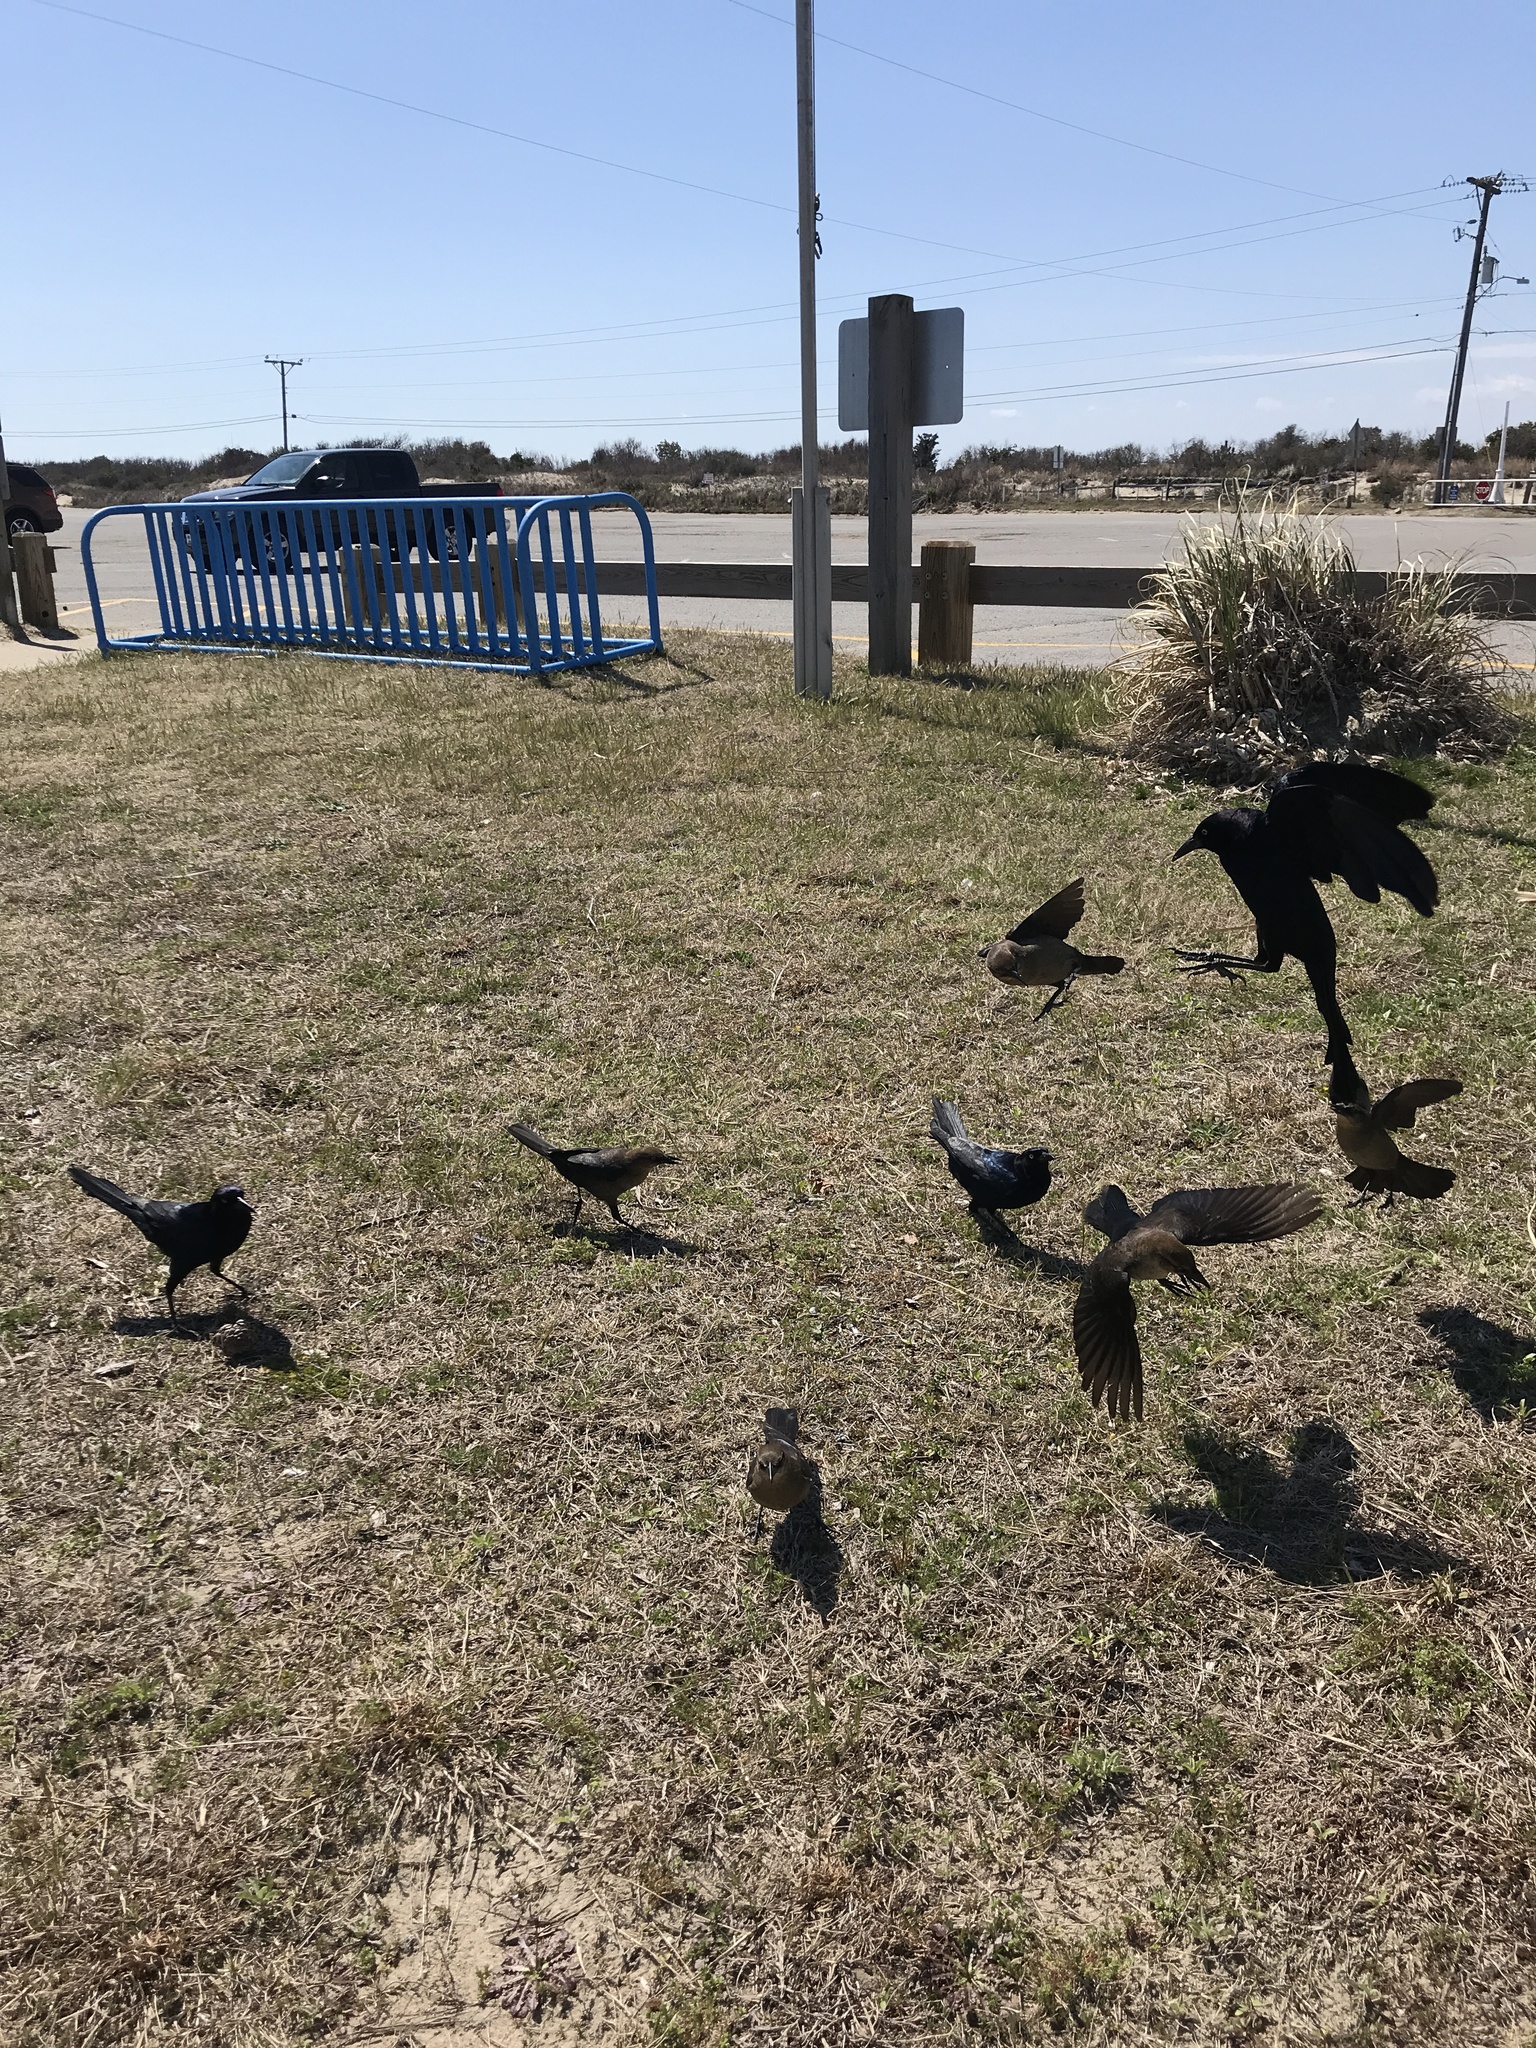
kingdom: Animalia
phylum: Chordata
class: Aves
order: Passeriformes
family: Icteridae
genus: Quiscalus
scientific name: Quiscalus major
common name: Boat-tailed grackle
